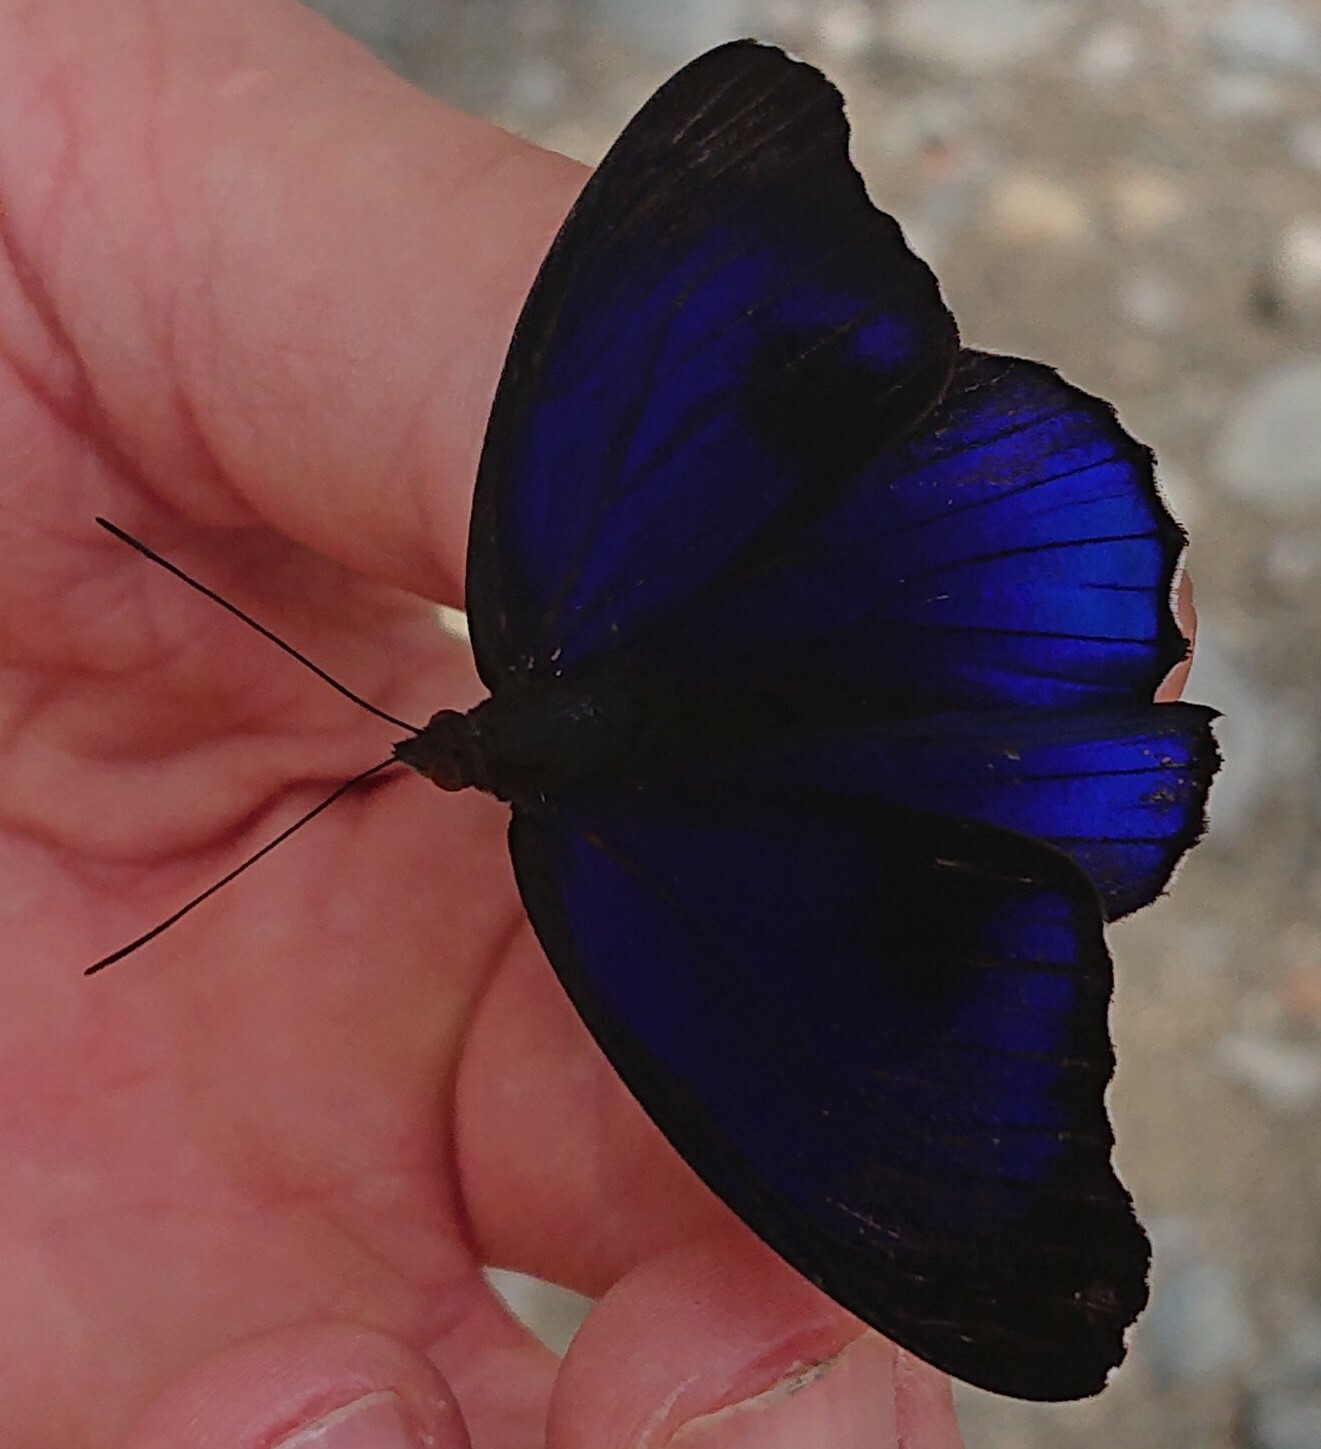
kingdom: Animalia
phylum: Arthropoda
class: Insecta
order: Lepidoptera
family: Nymphalidae
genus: Eunica
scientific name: Eunica alpais
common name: Shining purplewing
